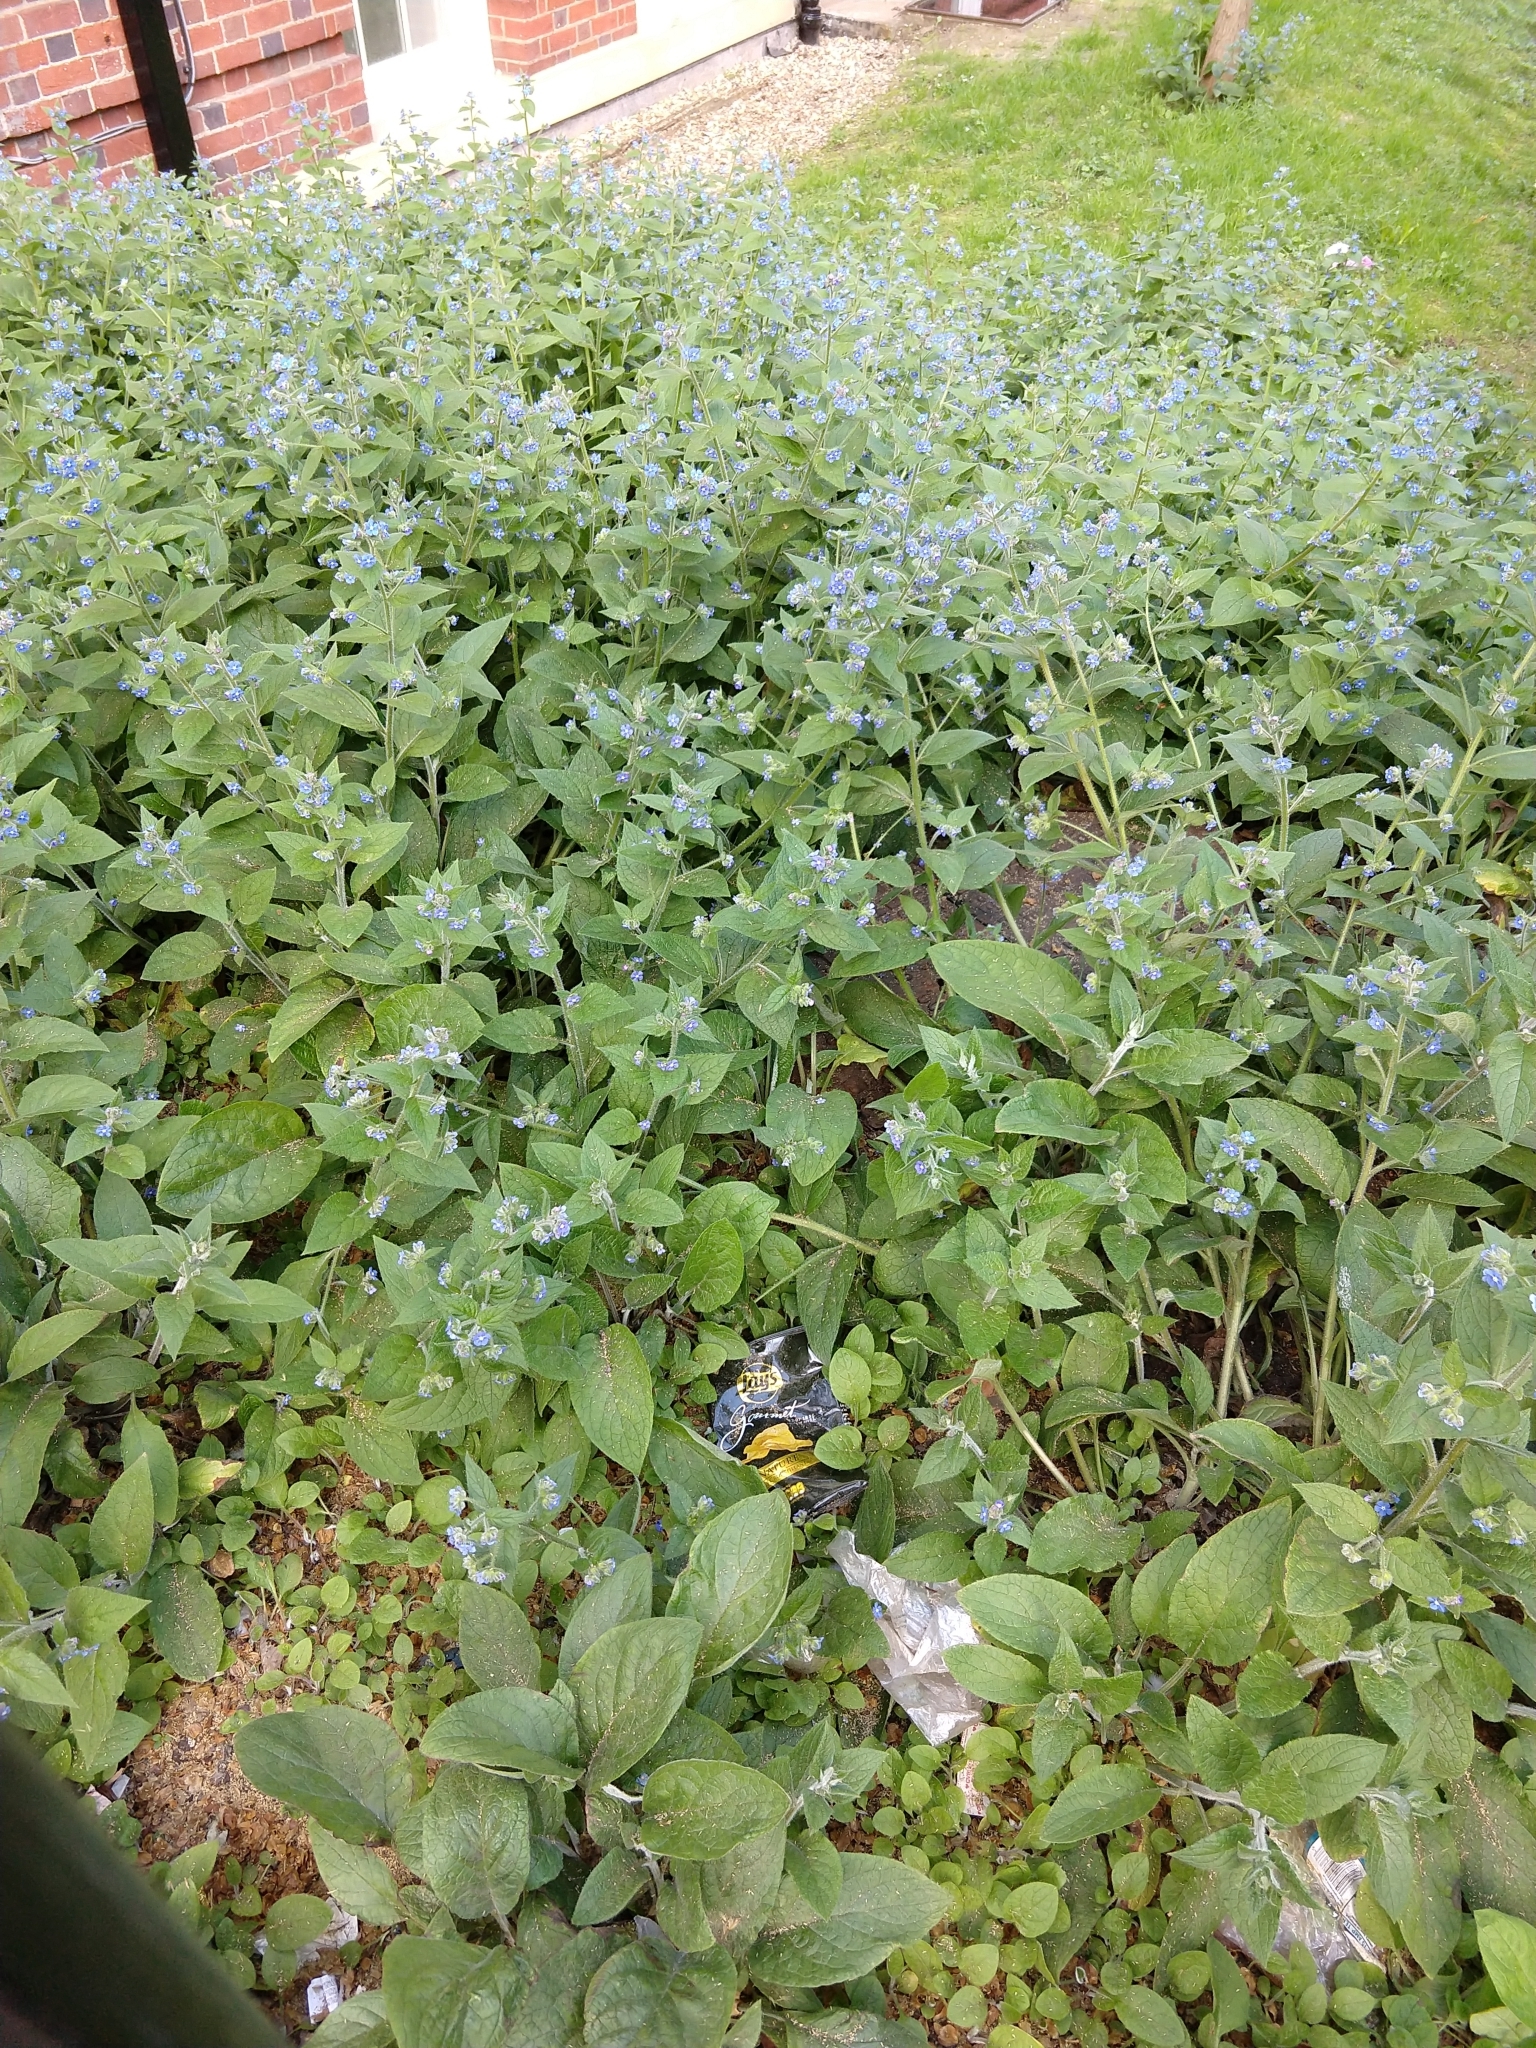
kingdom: Plantae
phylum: Tracheophyta
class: Magnoliopsida
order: Boraginales
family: Boraginaceae
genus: Pentaglottis
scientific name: Pentaglottis sempervirens
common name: Green alkanet
